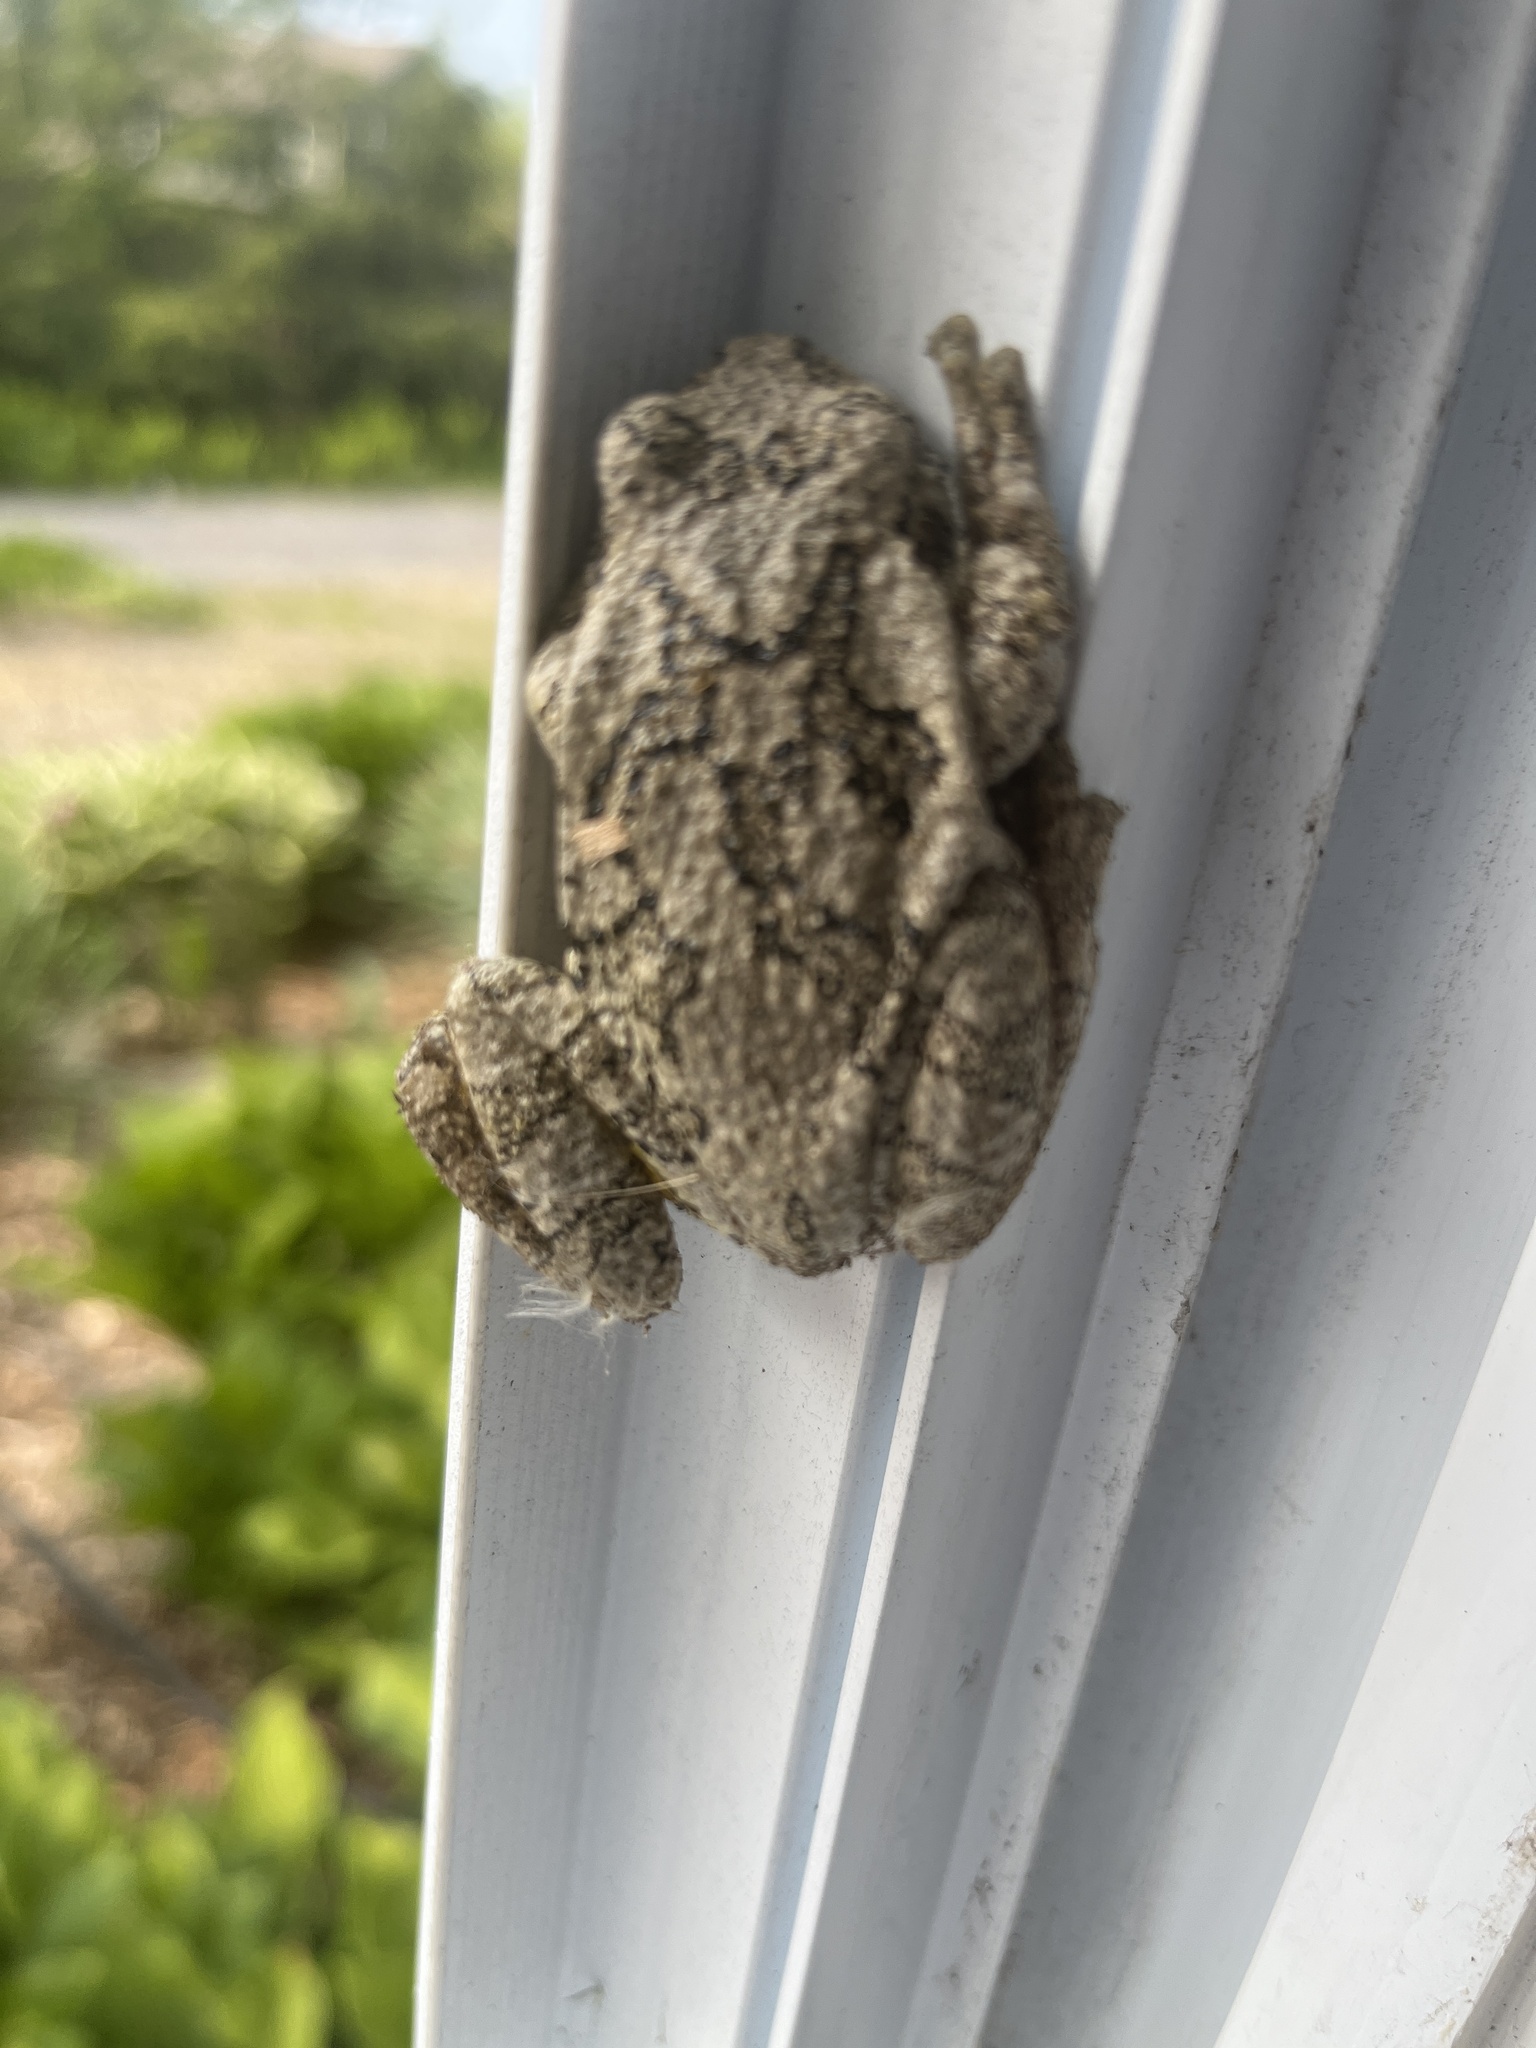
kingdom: Animalia
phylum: Chordata
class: Amphibia
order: Anura
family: Hylidae
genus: Dryophytes
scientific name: Dryophytes versicolor
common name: Gray treefrog
